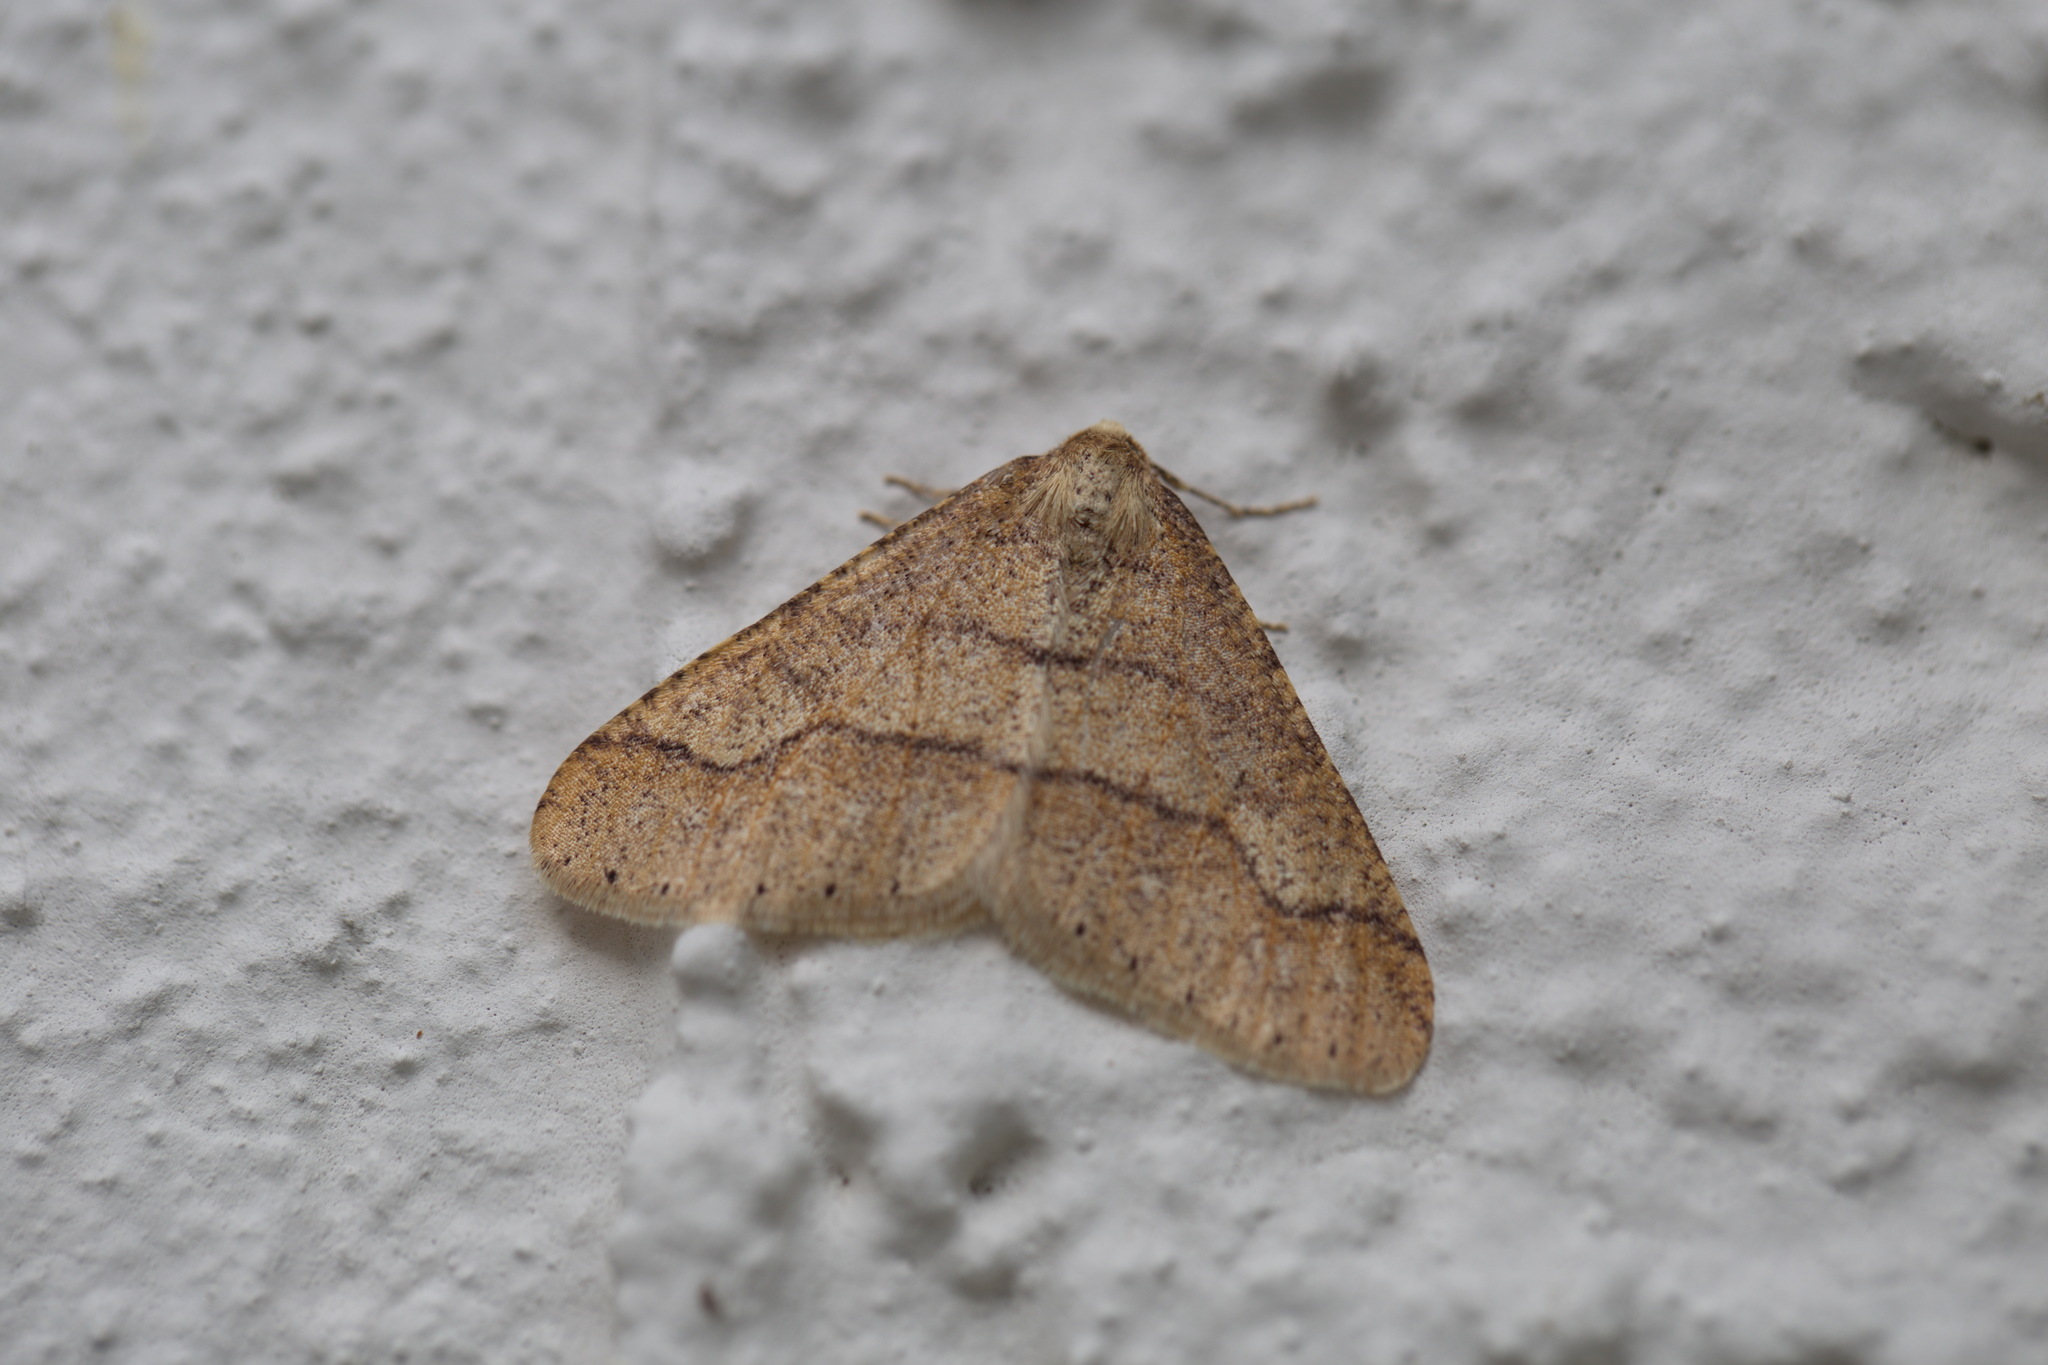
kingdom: Animalia
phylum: Arthropoda
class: Insecta
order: Lepidoptera
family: Geometridae
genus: Agriopis
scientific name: Agriopis marginaria
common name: Dotted border
